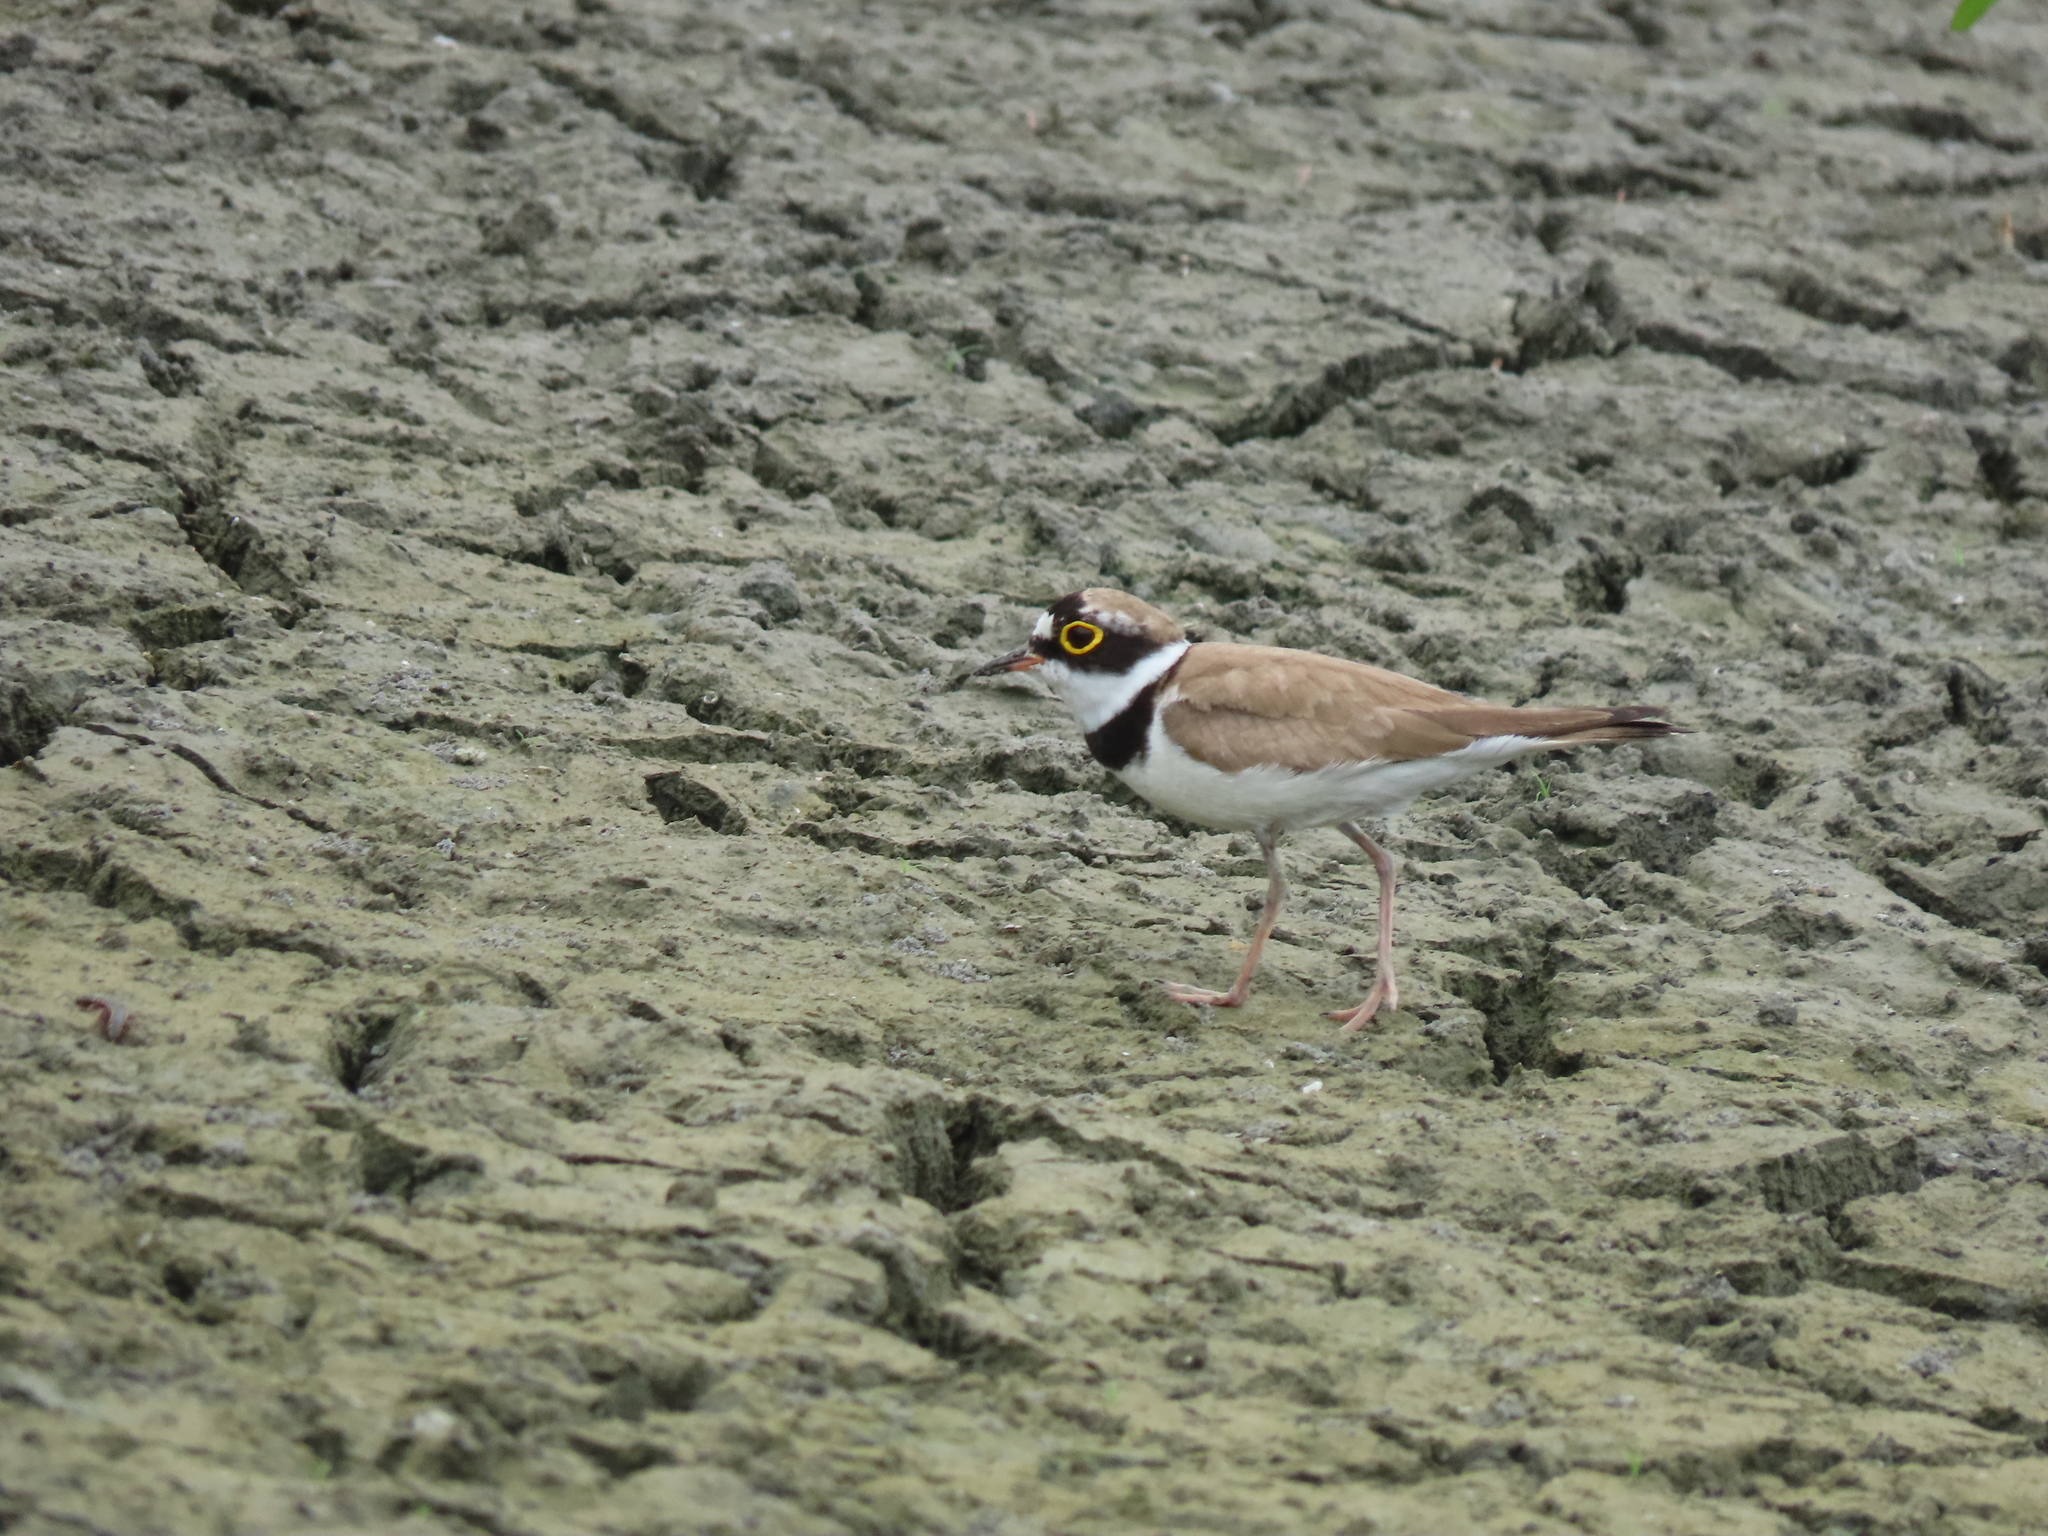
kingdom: Animalia
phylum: Chordata
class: Aves
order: Charadriiformes
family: Charadriidae
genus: Charadrius
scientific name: Charadrius dubius
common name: Little ringed plover
